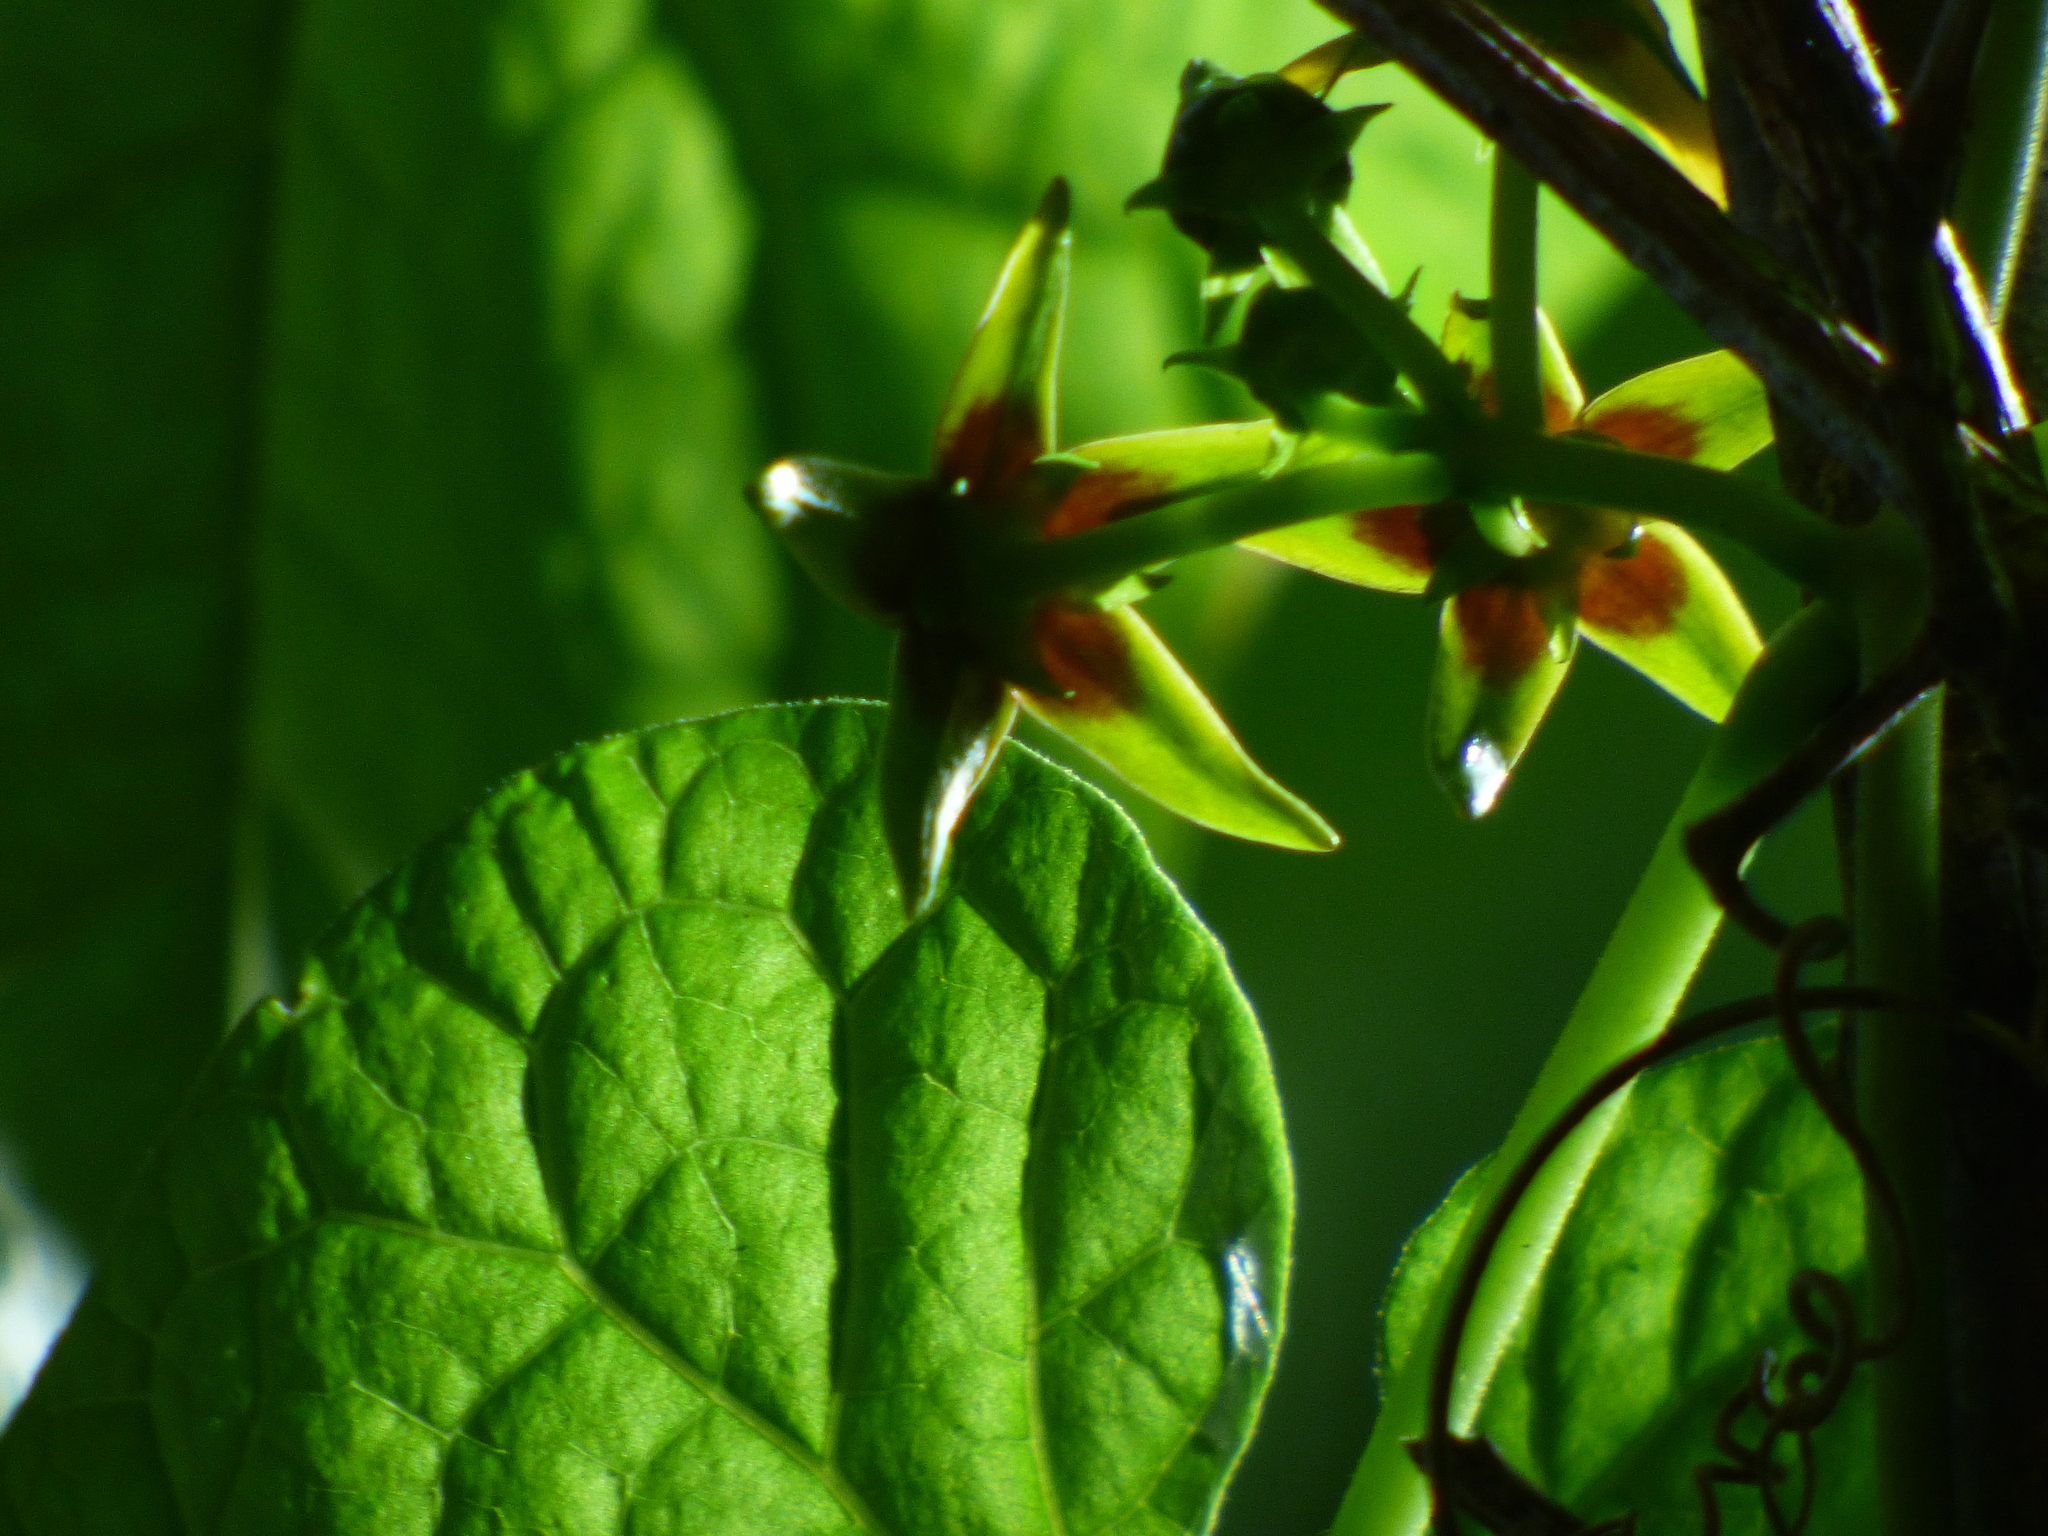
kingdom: Plantae
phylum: Tracheophyta
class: Magnoliopsida
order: Gentianales
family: Apocynaceae
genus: Gonolobus
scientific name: Gonolobus suberosus
